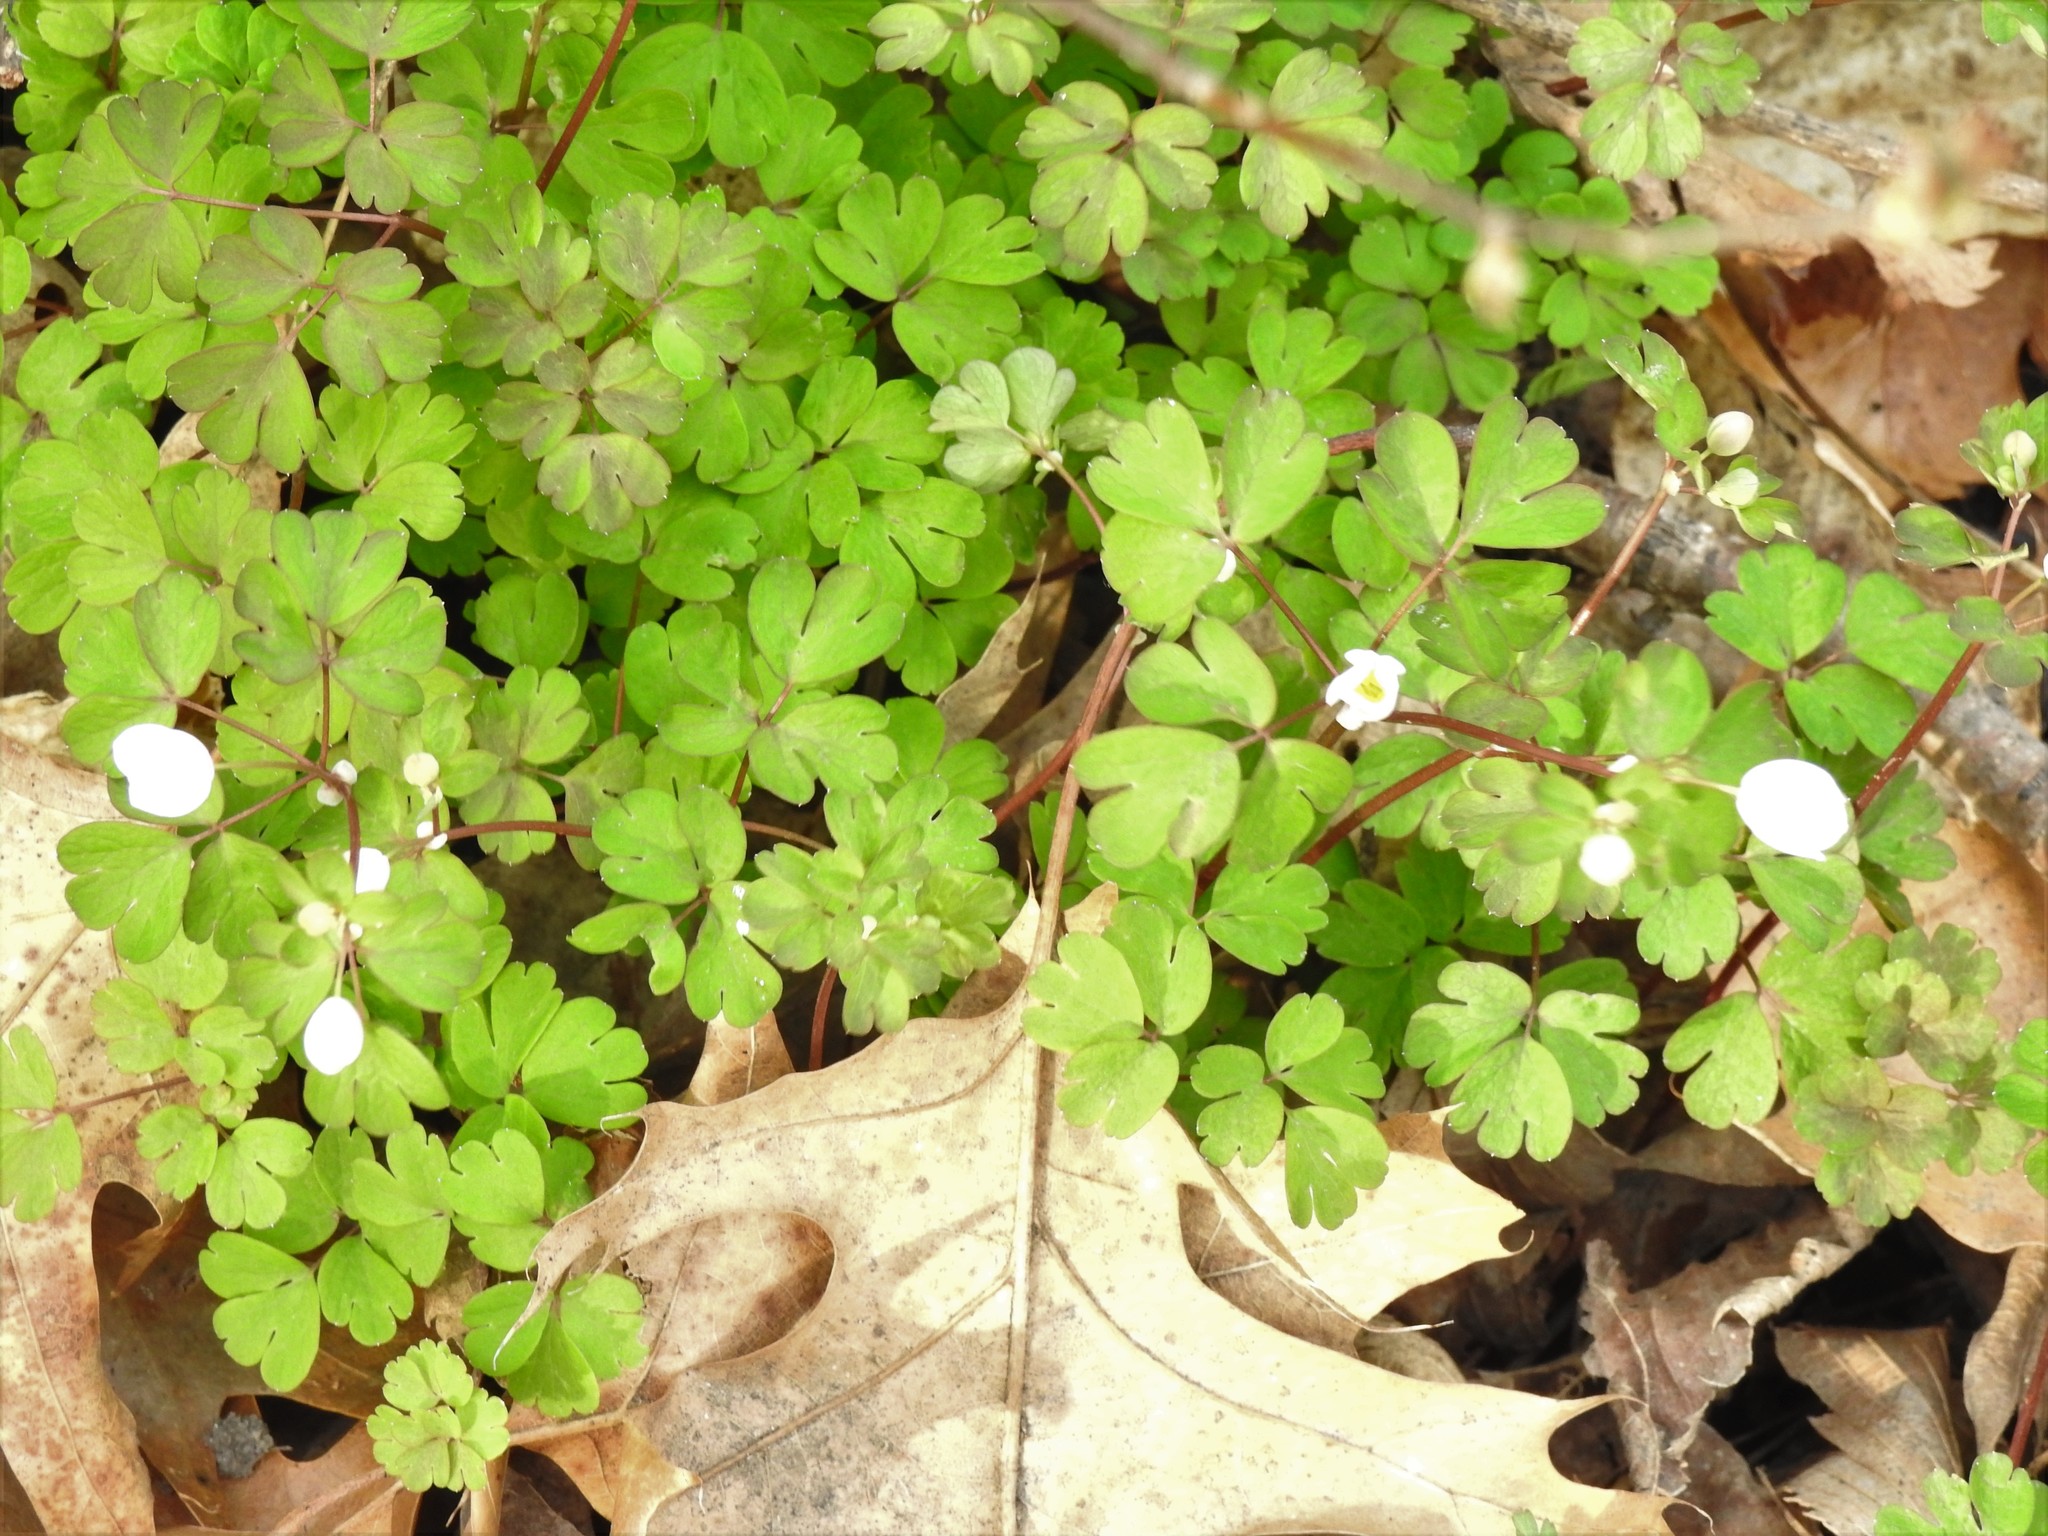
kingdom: Plantae
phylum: Tracheophyta
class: Magnoliopsida
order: Ranunculales
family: Ranunculaceae
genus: Enemion
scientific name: Enemion biternatum
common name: Eastern false rue-anemone
